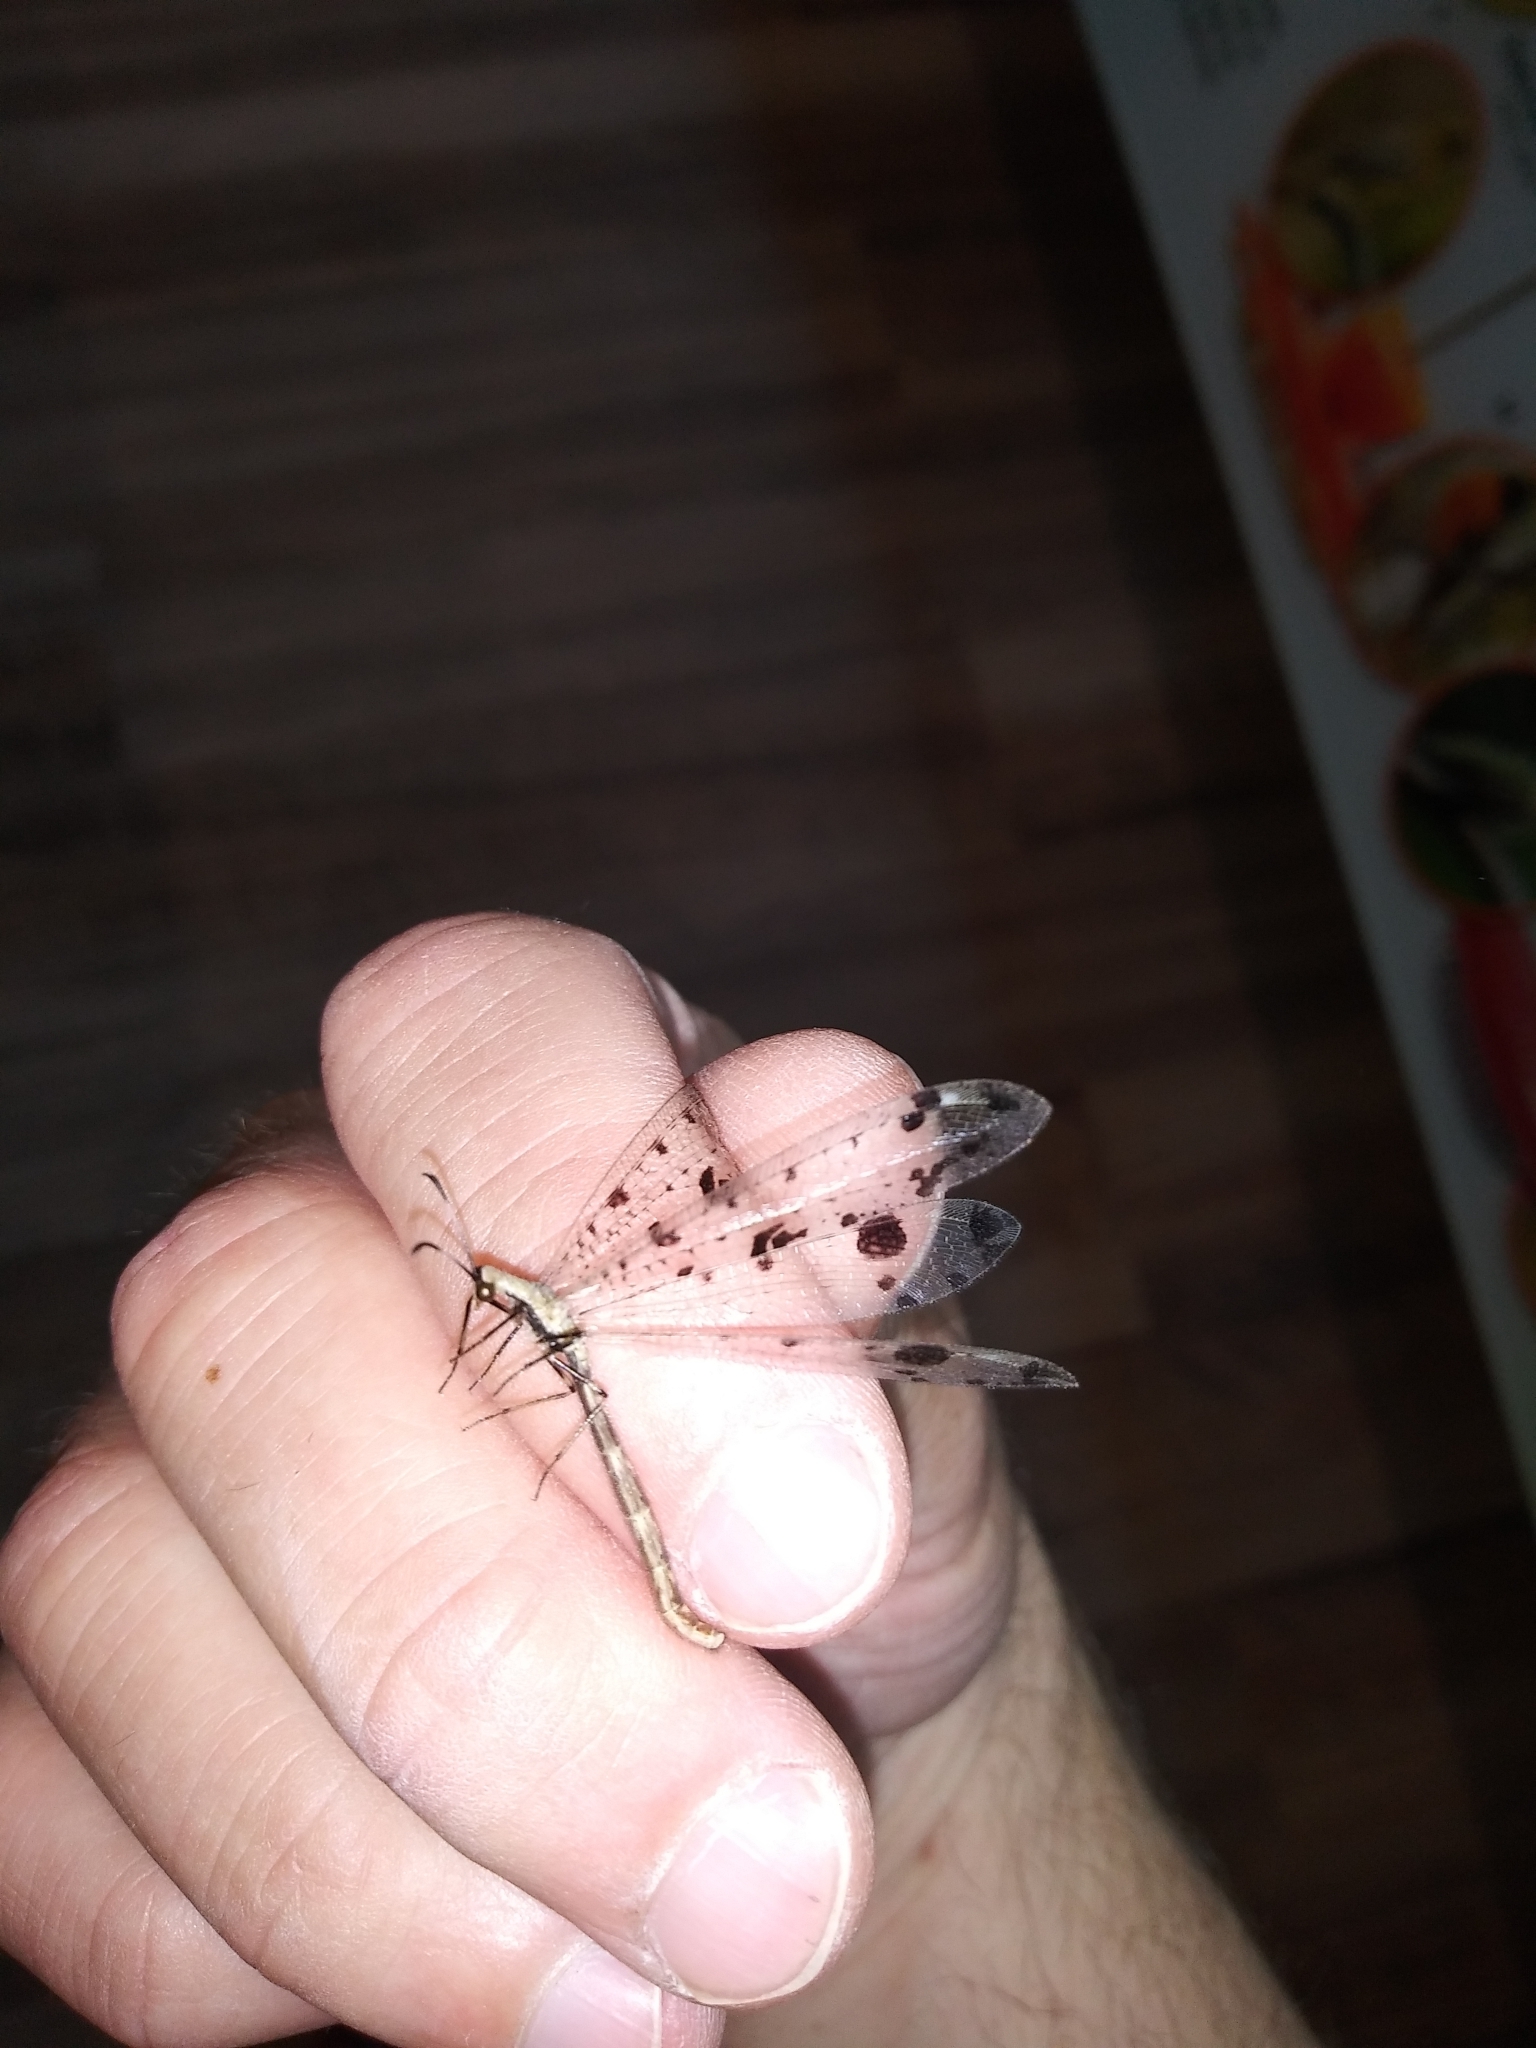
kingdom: Animalia
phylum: Arthropoda
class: Insecta
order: Neuroptera
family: Myrmeleontidae
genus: Dendroleon
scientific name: Dendroleon obsoletus
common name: Eastern spotted-winged antlion
